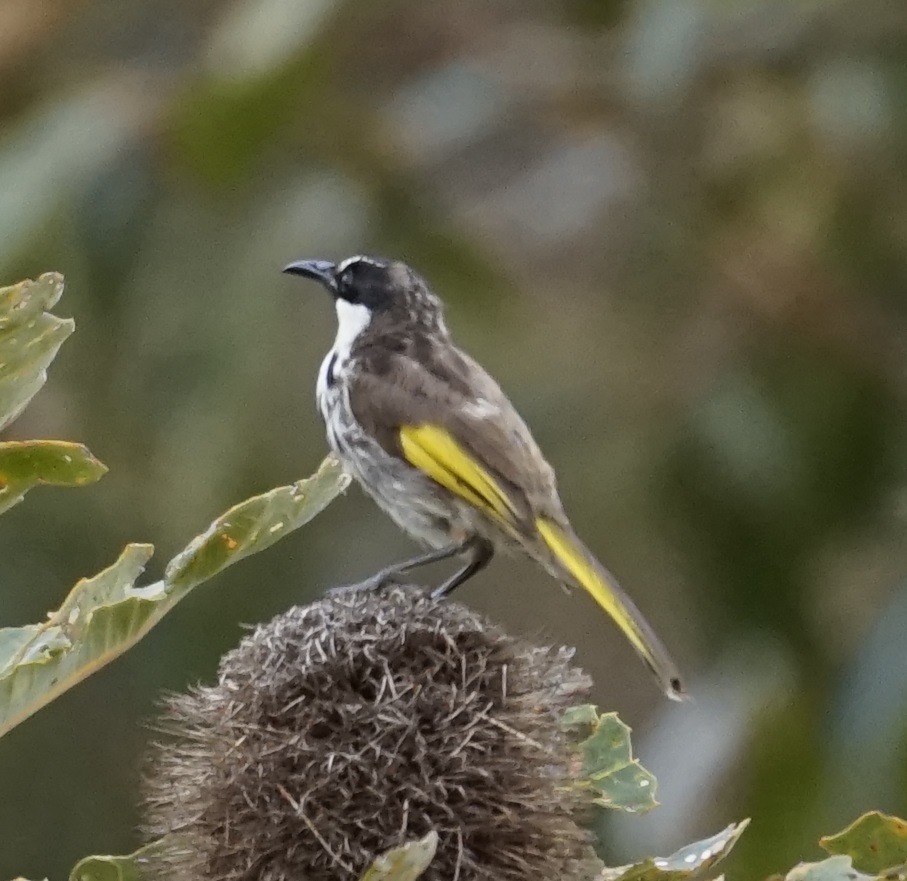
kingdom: Animalia
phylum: Chordata
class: Aves
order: Passeriformes
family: Meliphagidae
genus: Phylidonyris
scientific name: Phylidonyris niger
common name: White-cheeked honeyeater
